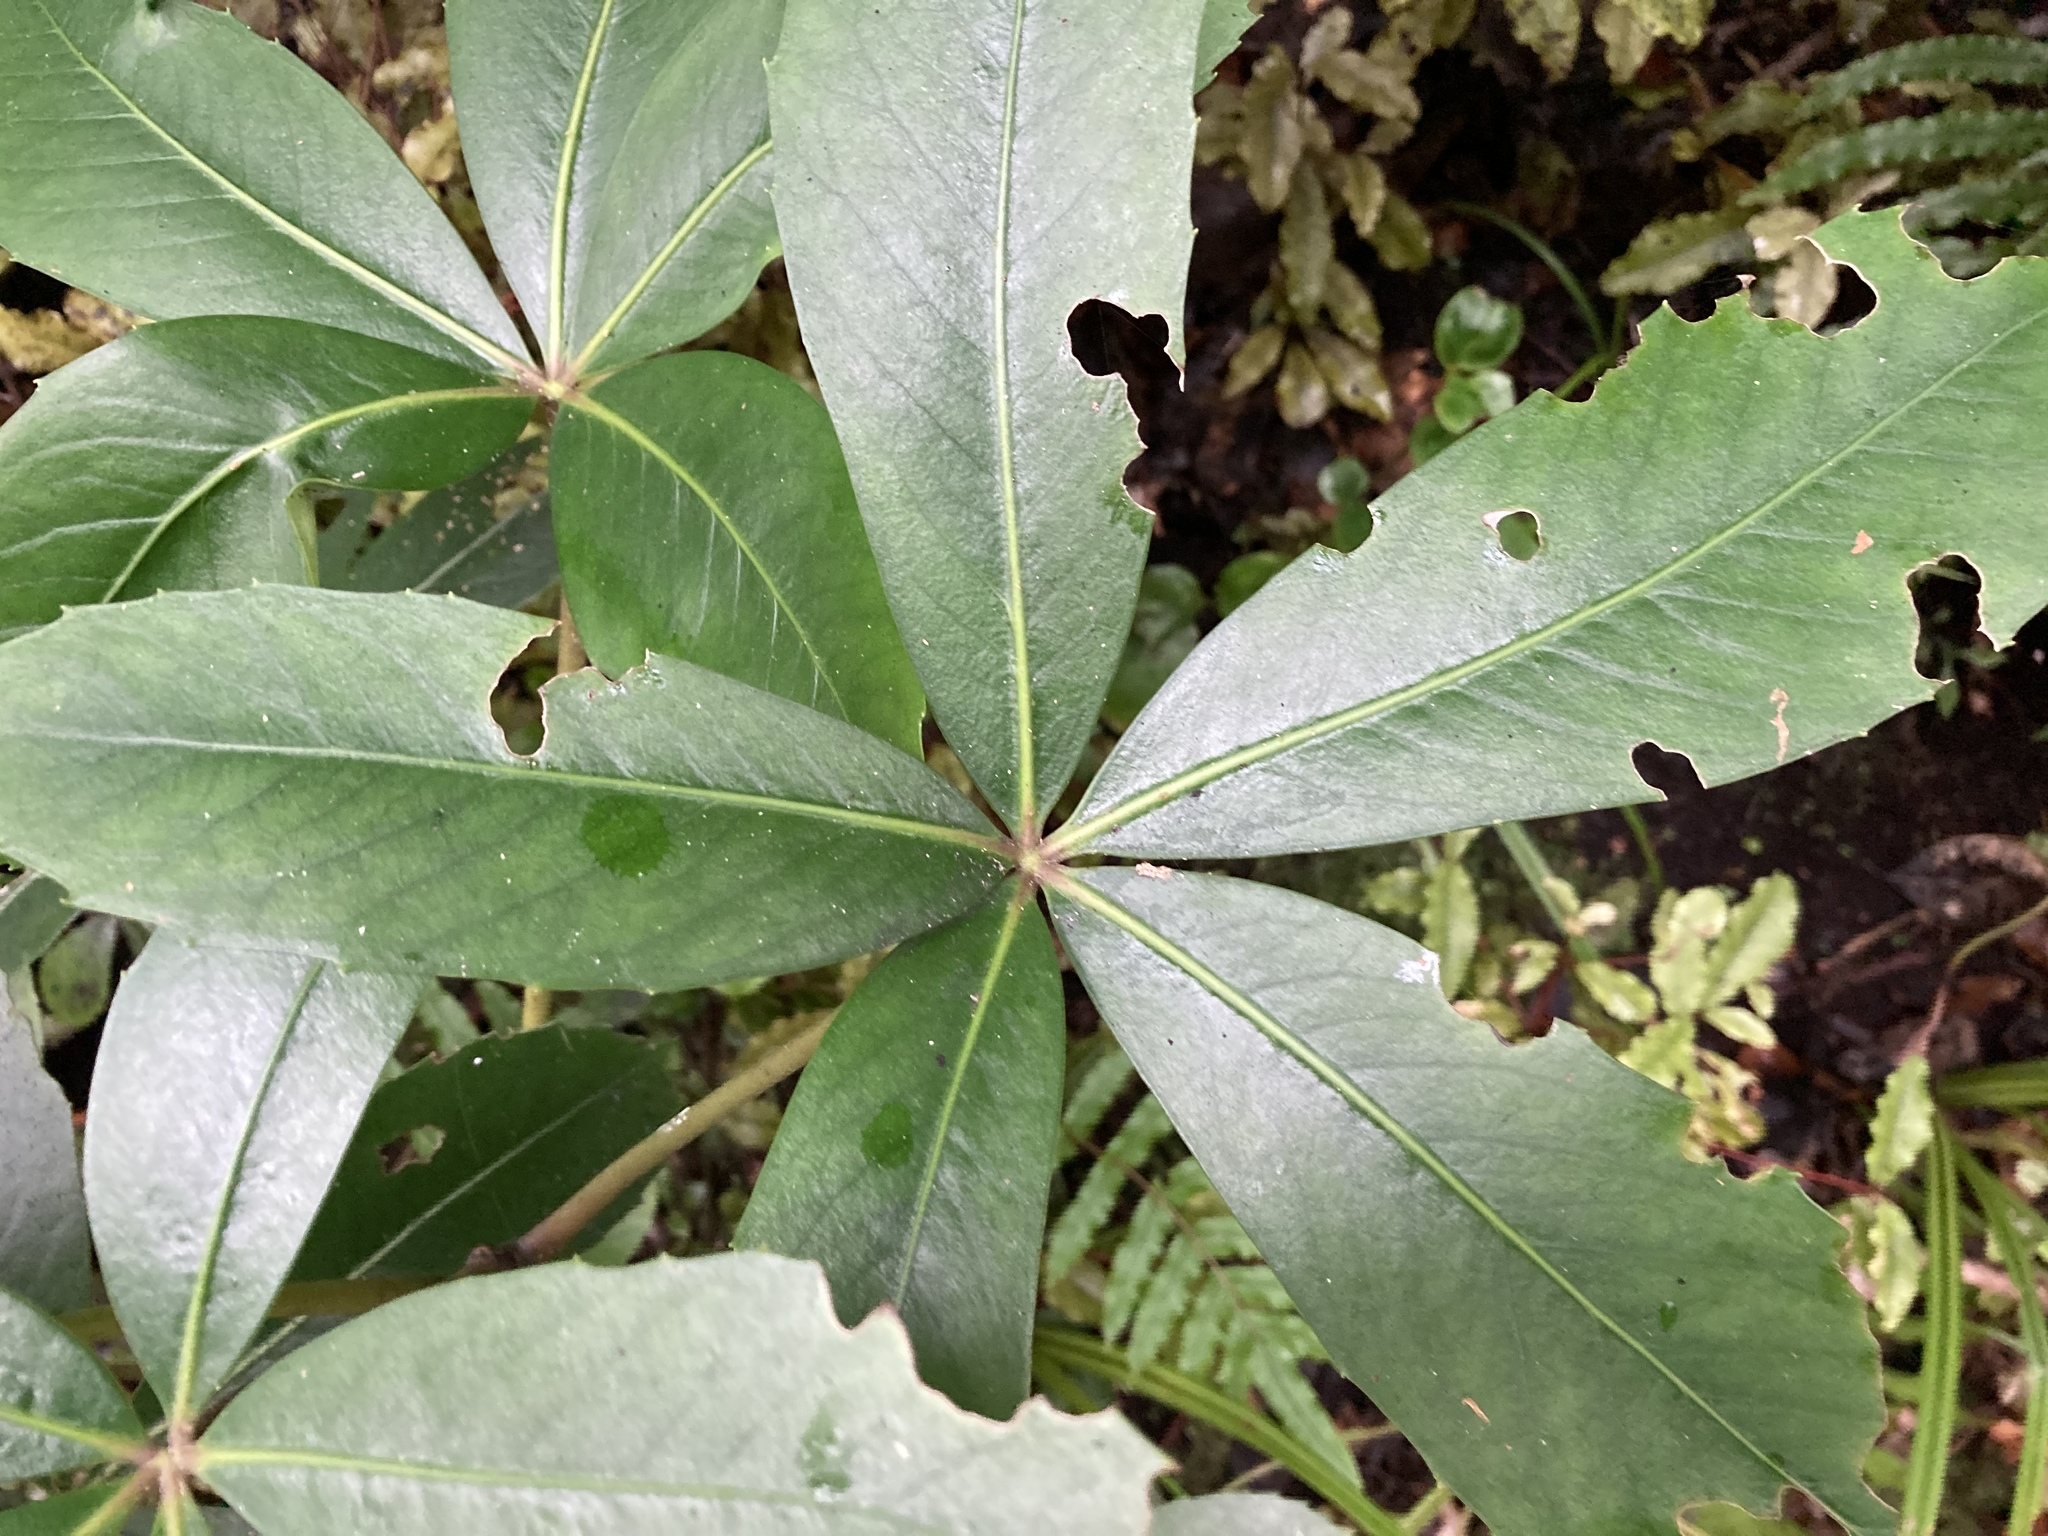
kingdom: Plantae
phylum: Tracheophyta
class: Magnoliopsida
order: Apiales
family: Araliaceae
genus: Neopanax
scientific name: Neopanax colensoi
